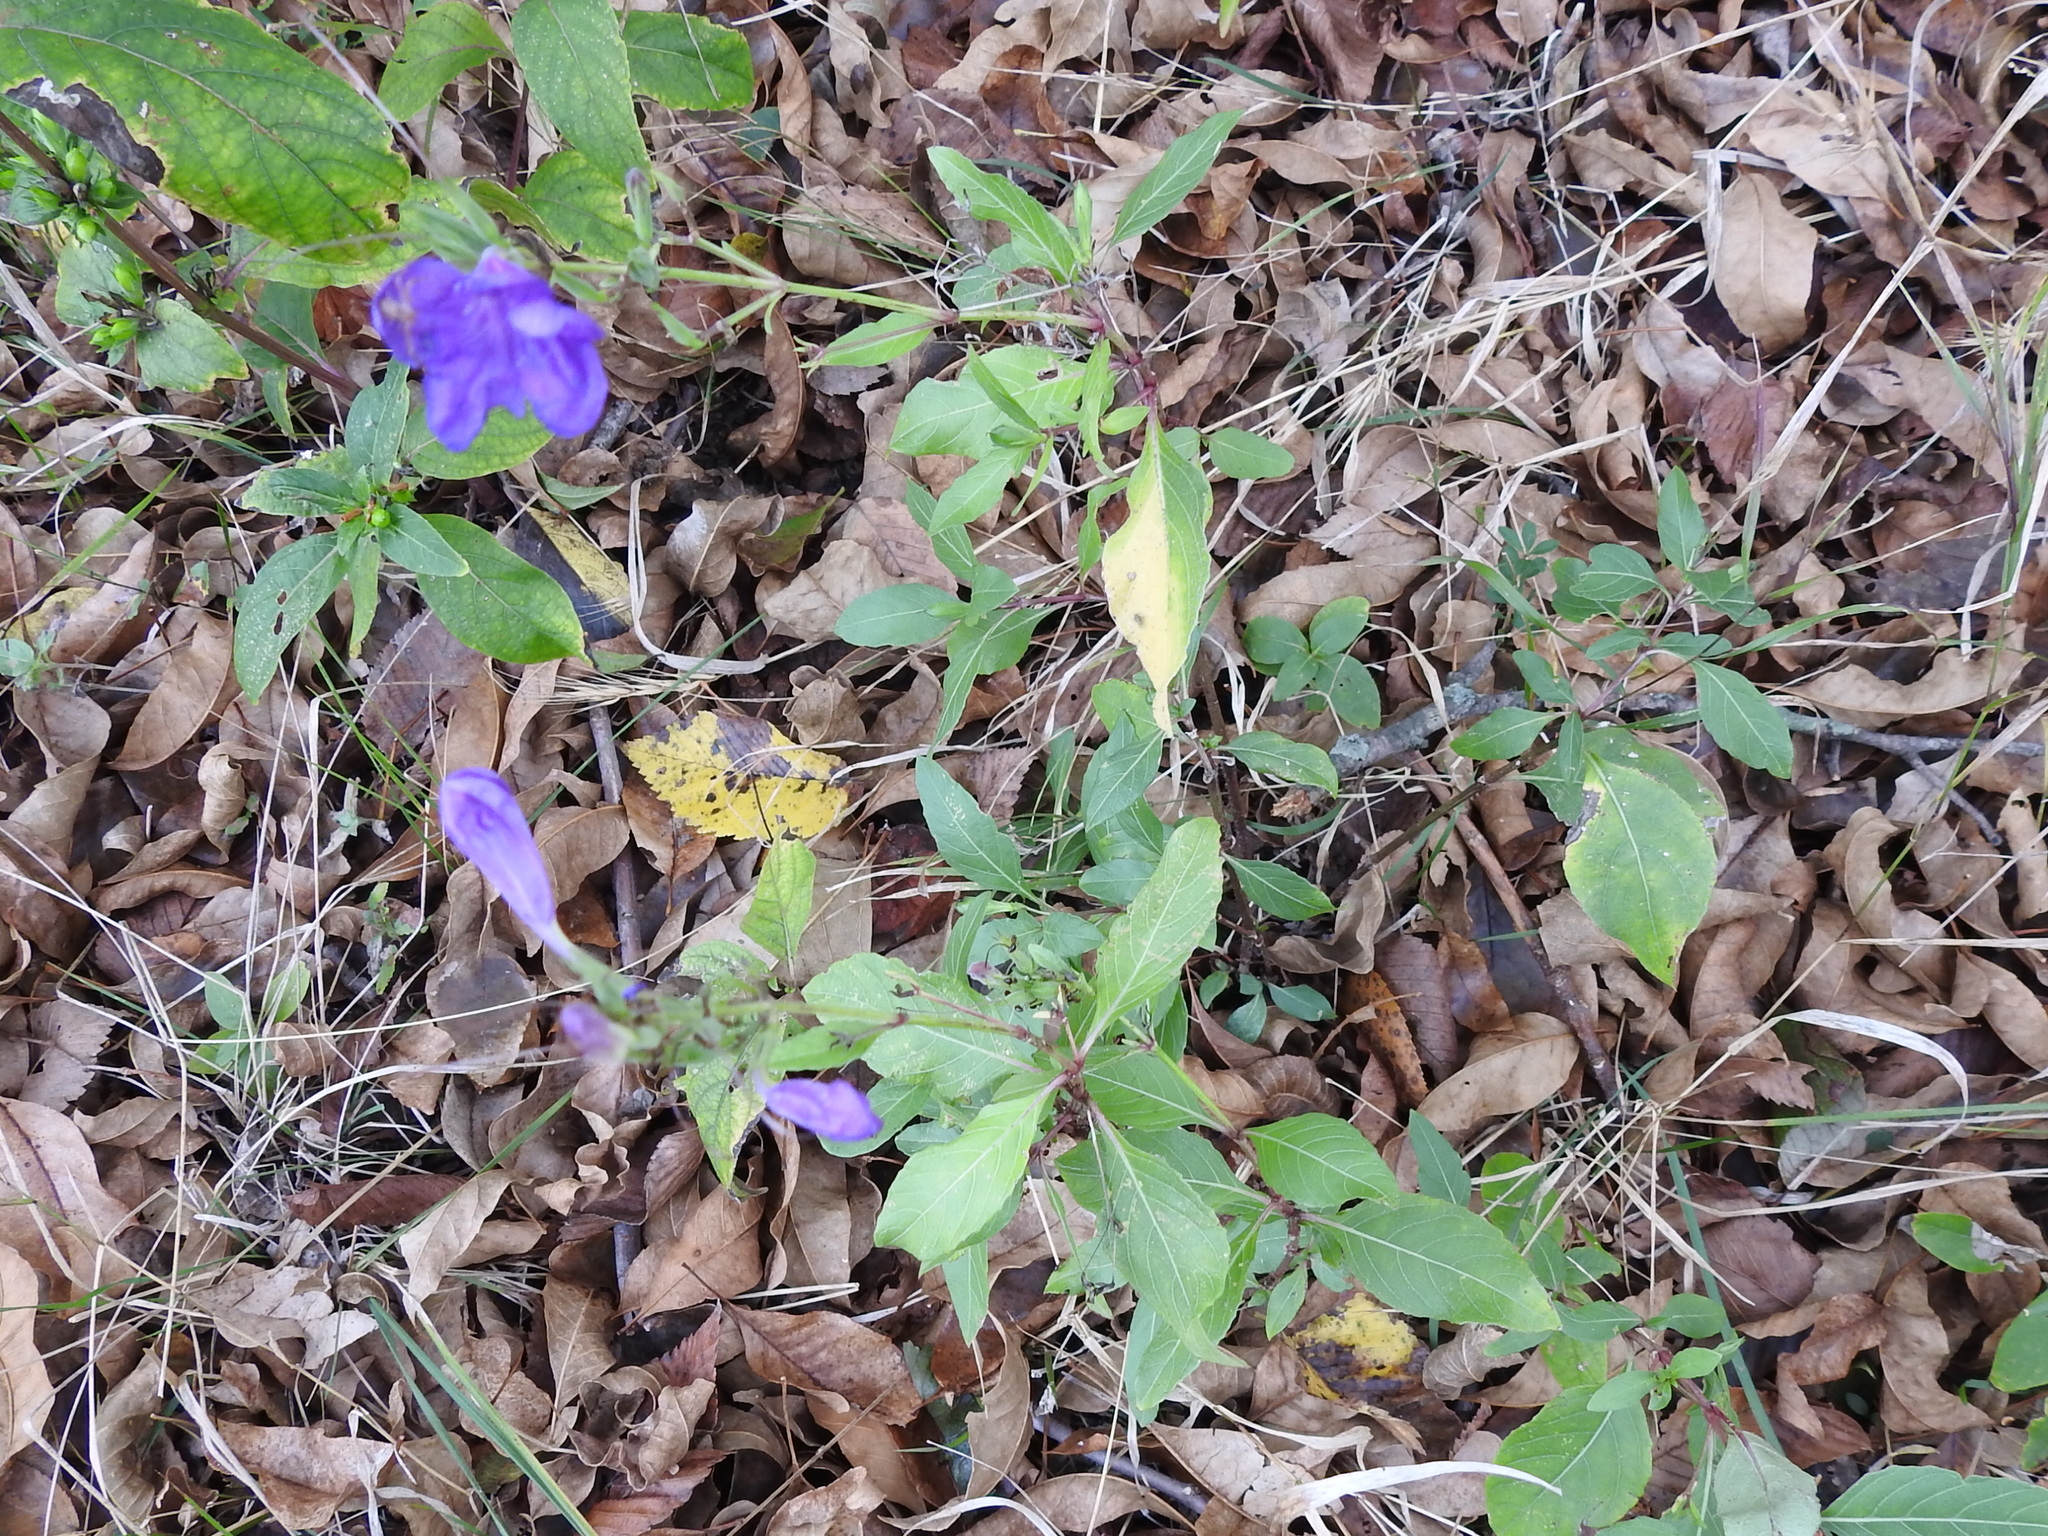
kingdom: Plantae
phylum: Tracheophyta
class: Magnoliopsida
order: Lamiales
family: Acanthaceae
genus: Ruellia
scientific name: Ruellia ciliatiflora
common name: Hairyflower wild petunia
